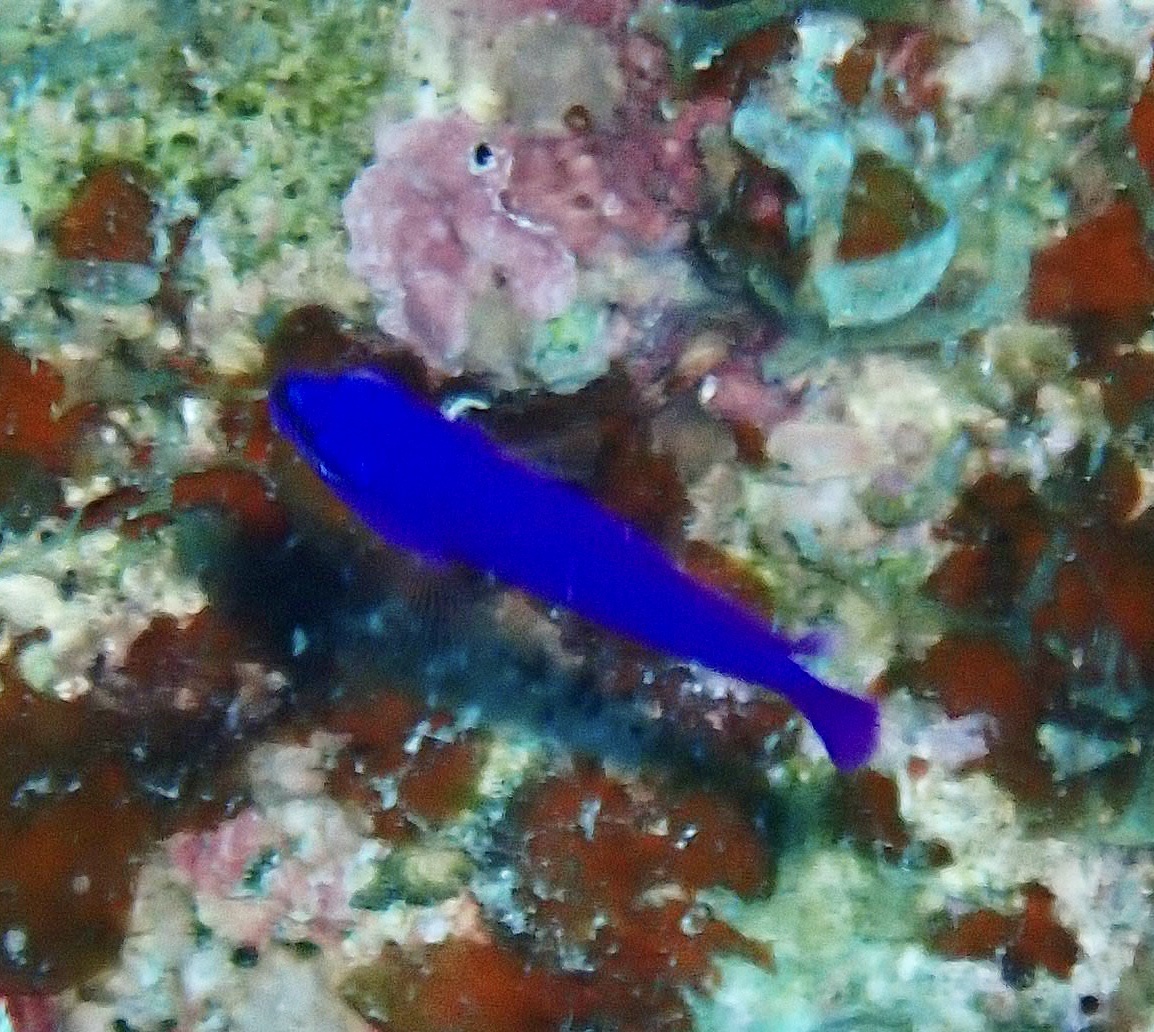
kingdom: Animalia
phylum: Chordata
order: Perciformes
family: Pseudochromidae
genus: Pseudochromis
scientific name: Pseudochromis fridmani
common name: Orchid dottyback
